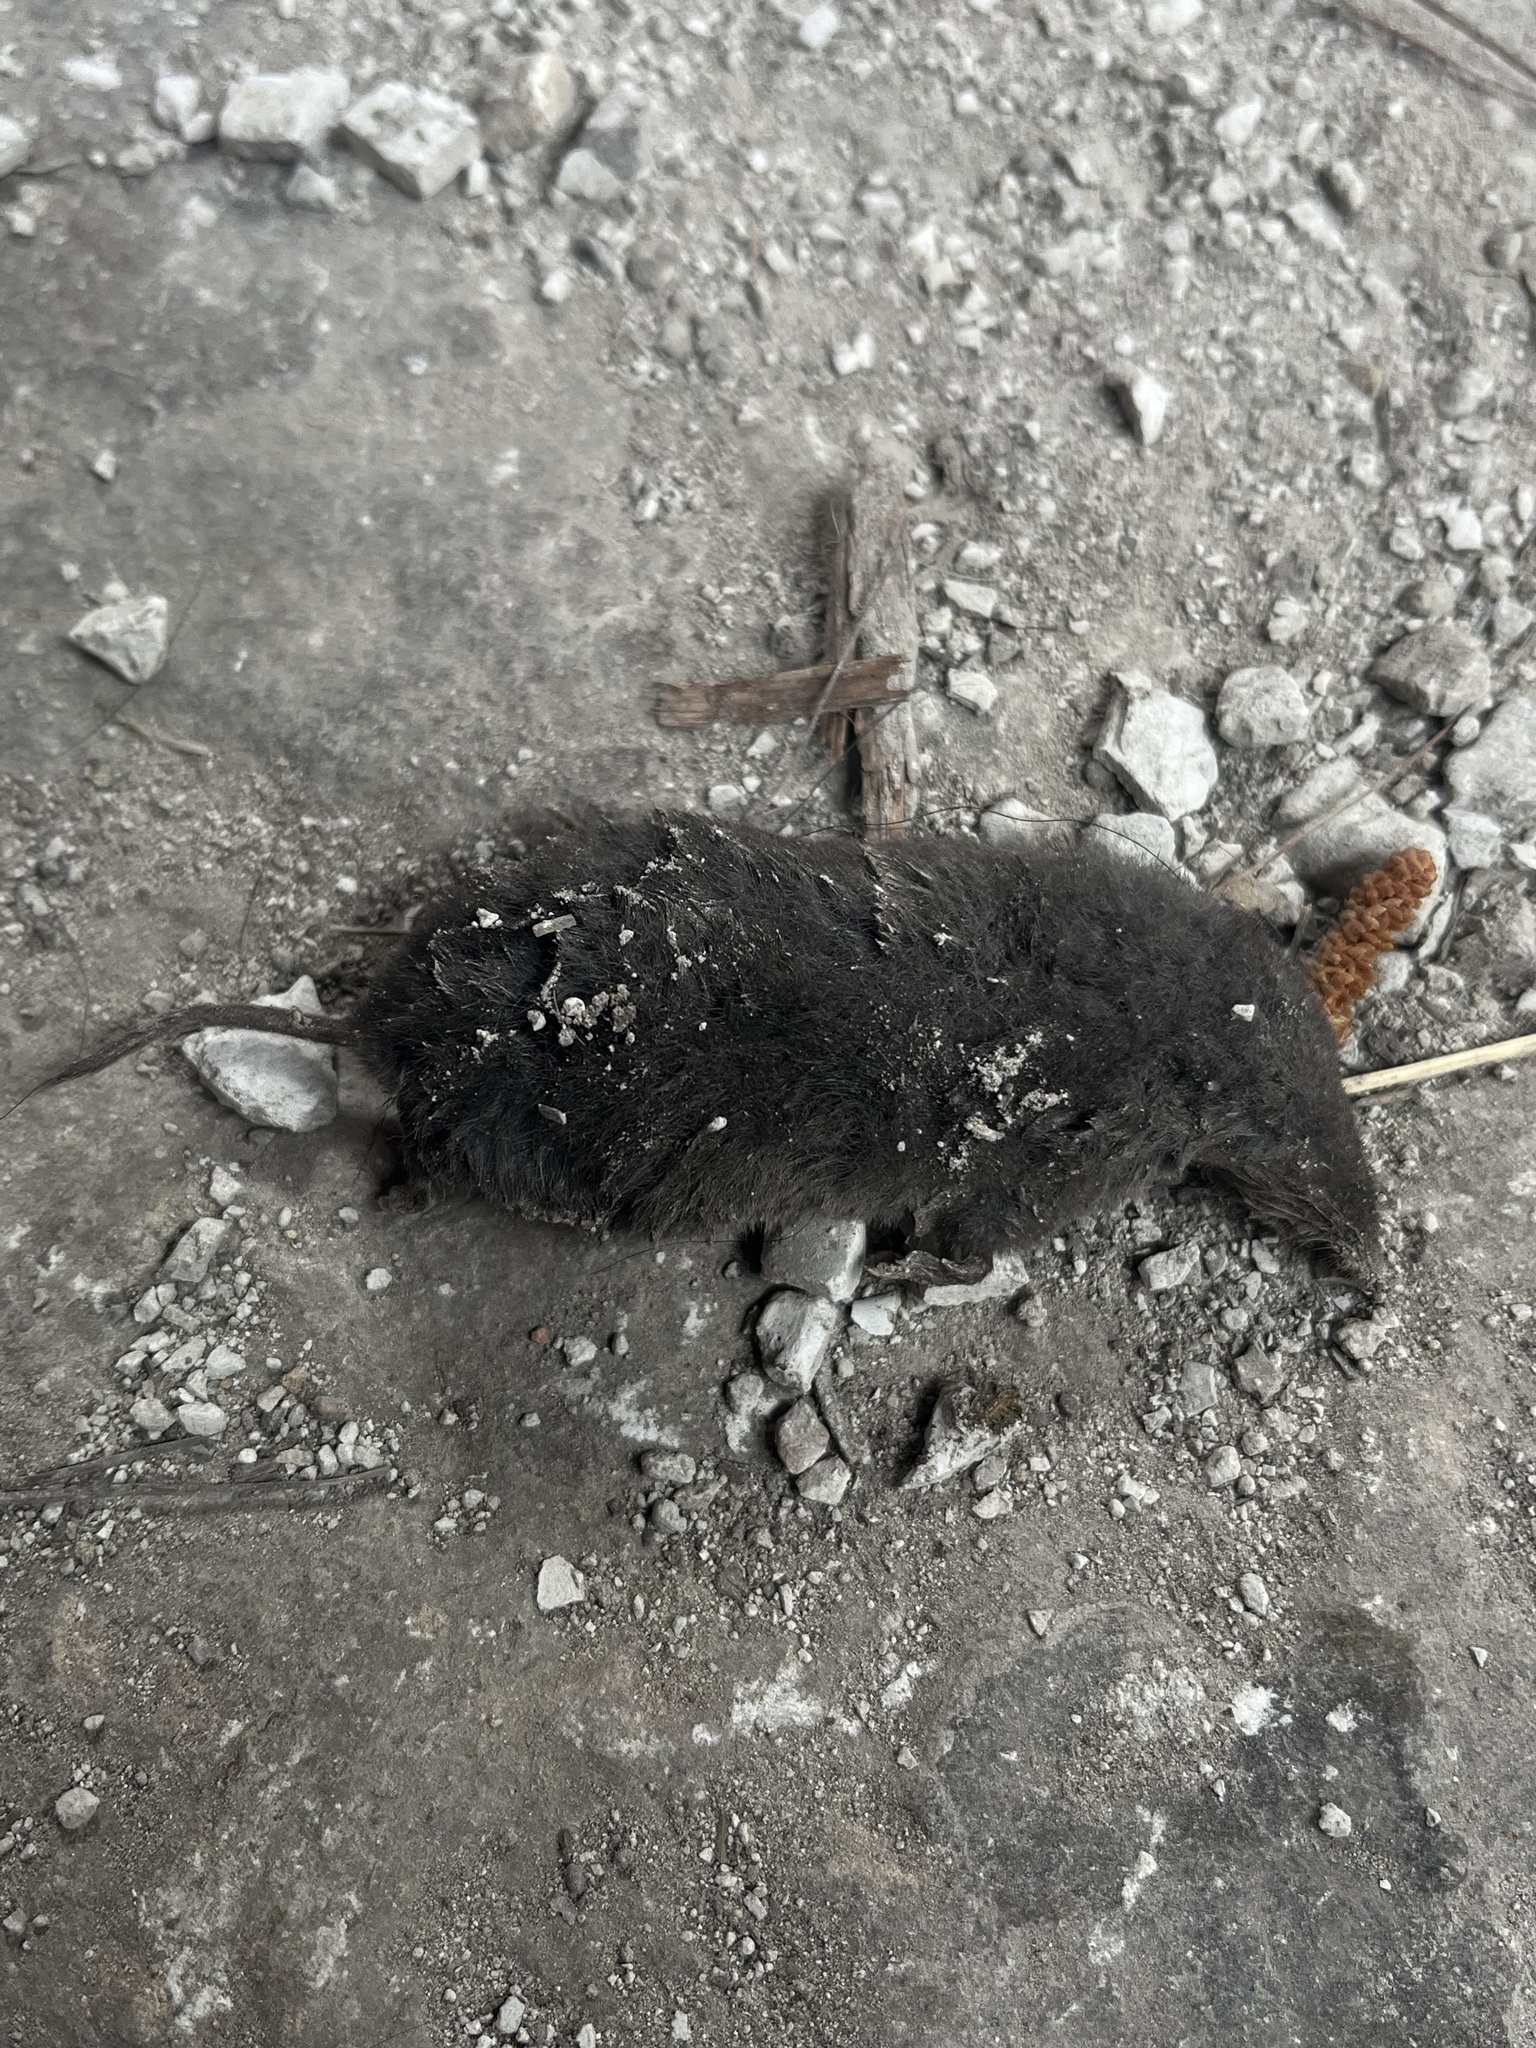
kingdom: Animalia
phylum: Chordata
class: Mammalia
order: Soricomorpha
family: Soricidae
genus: Cryptotis
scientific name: Cryptotis thomasi
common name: Thomas' small-eared shrew
